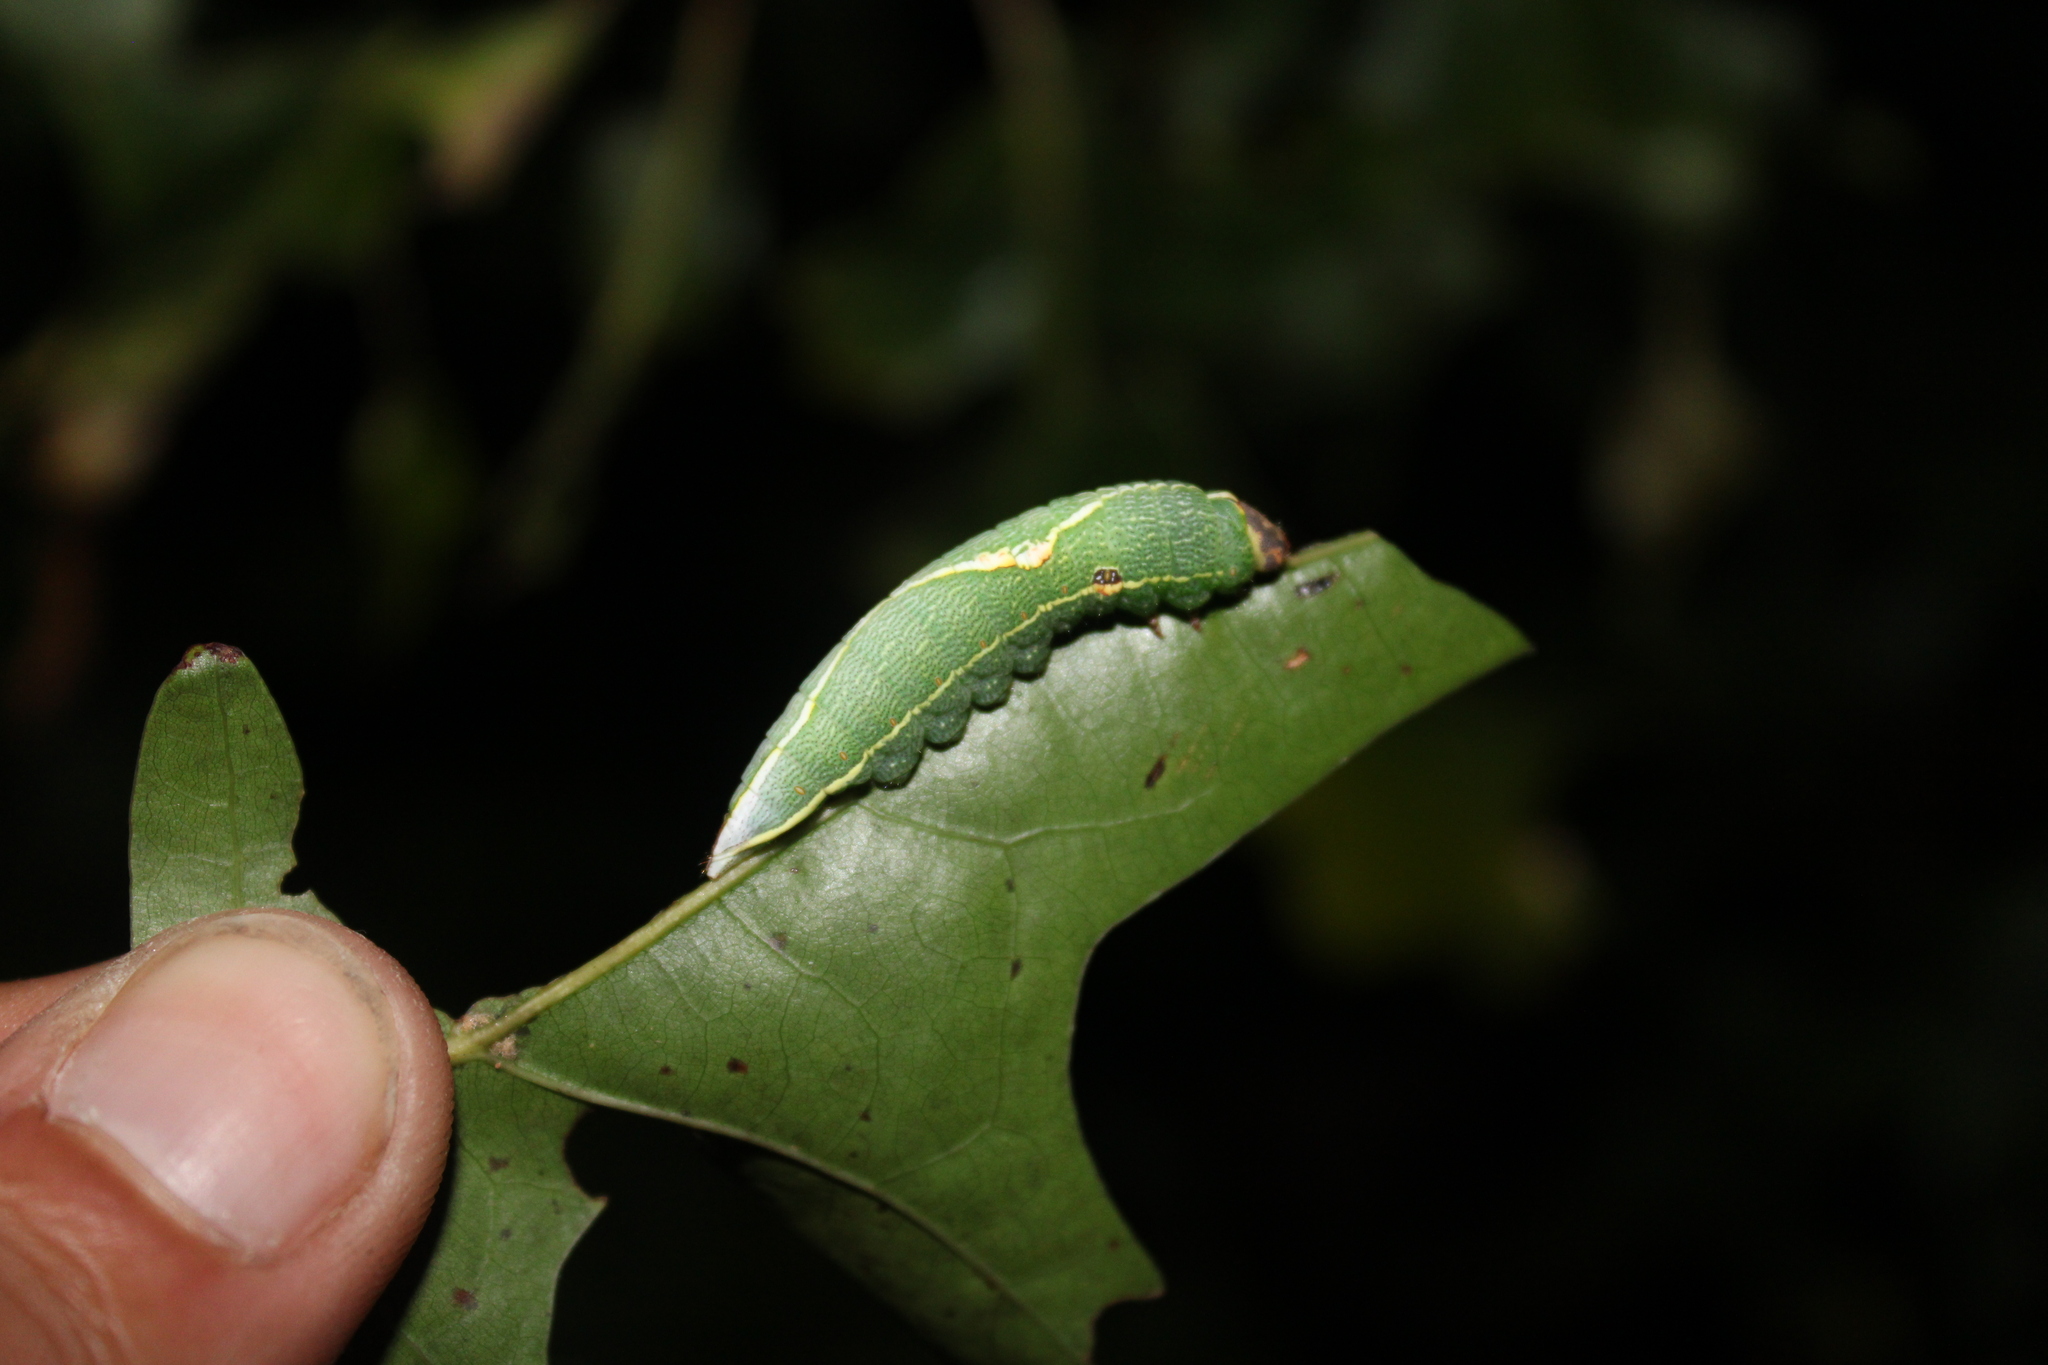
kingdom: Animalia
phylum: Arthropoda
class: Insecta
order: Lepidoptera
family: Notodontidae
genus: Heterocampa
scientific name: Heterocampa obliqua
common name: Oblique heterocampa
